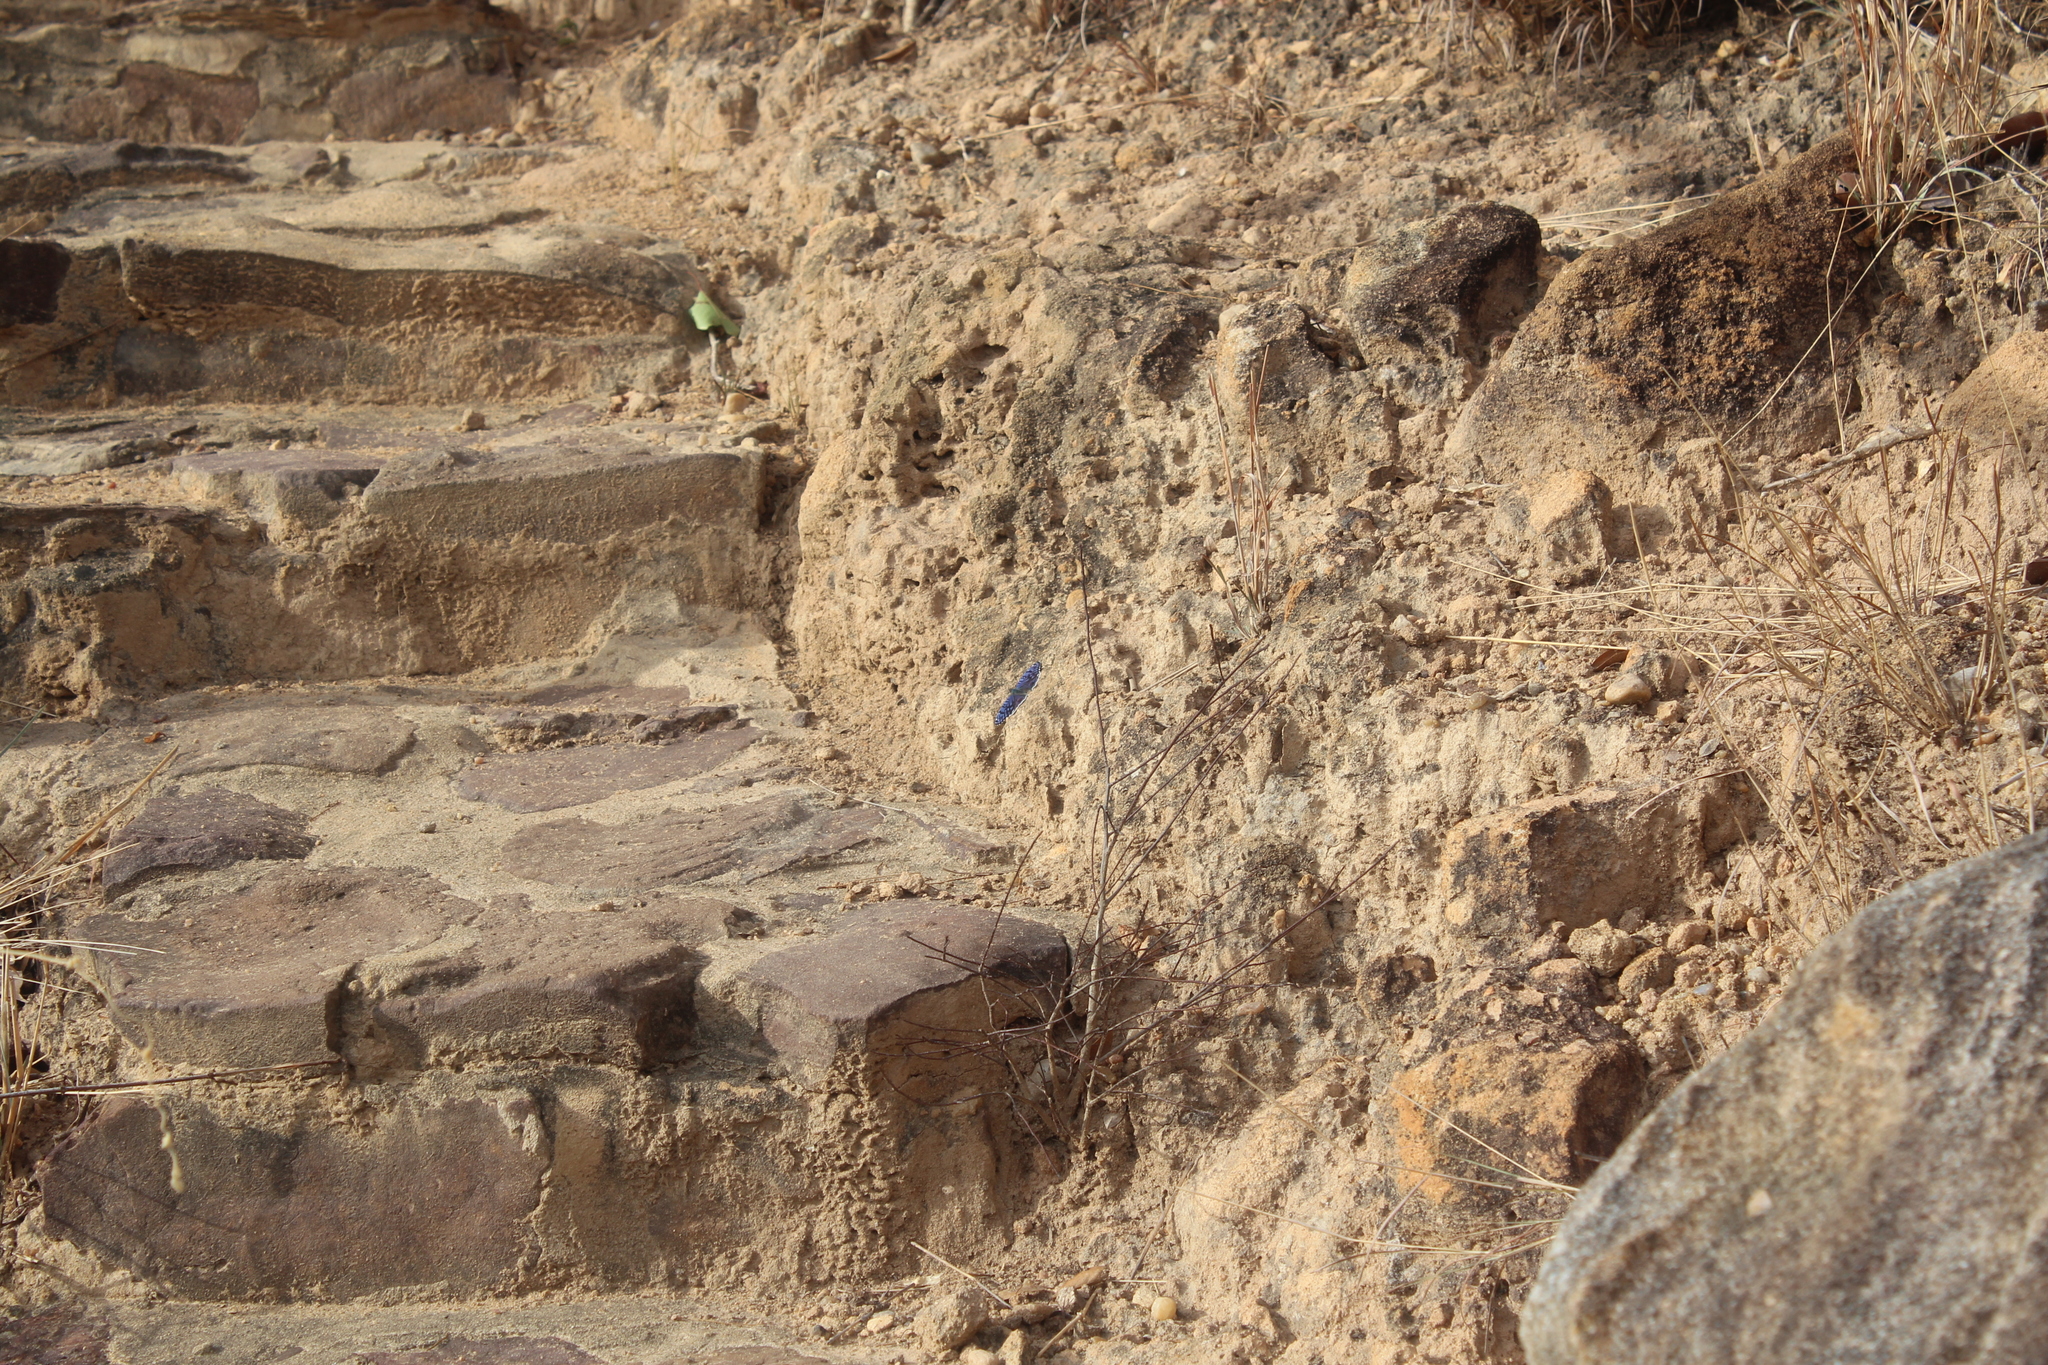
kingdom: Animalia
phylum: Arthropoda
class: Insecta
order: Lepidoptera
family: Nymphalidae
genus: Junonia
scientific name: Junonia rhadama
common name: Royal blue pansy
